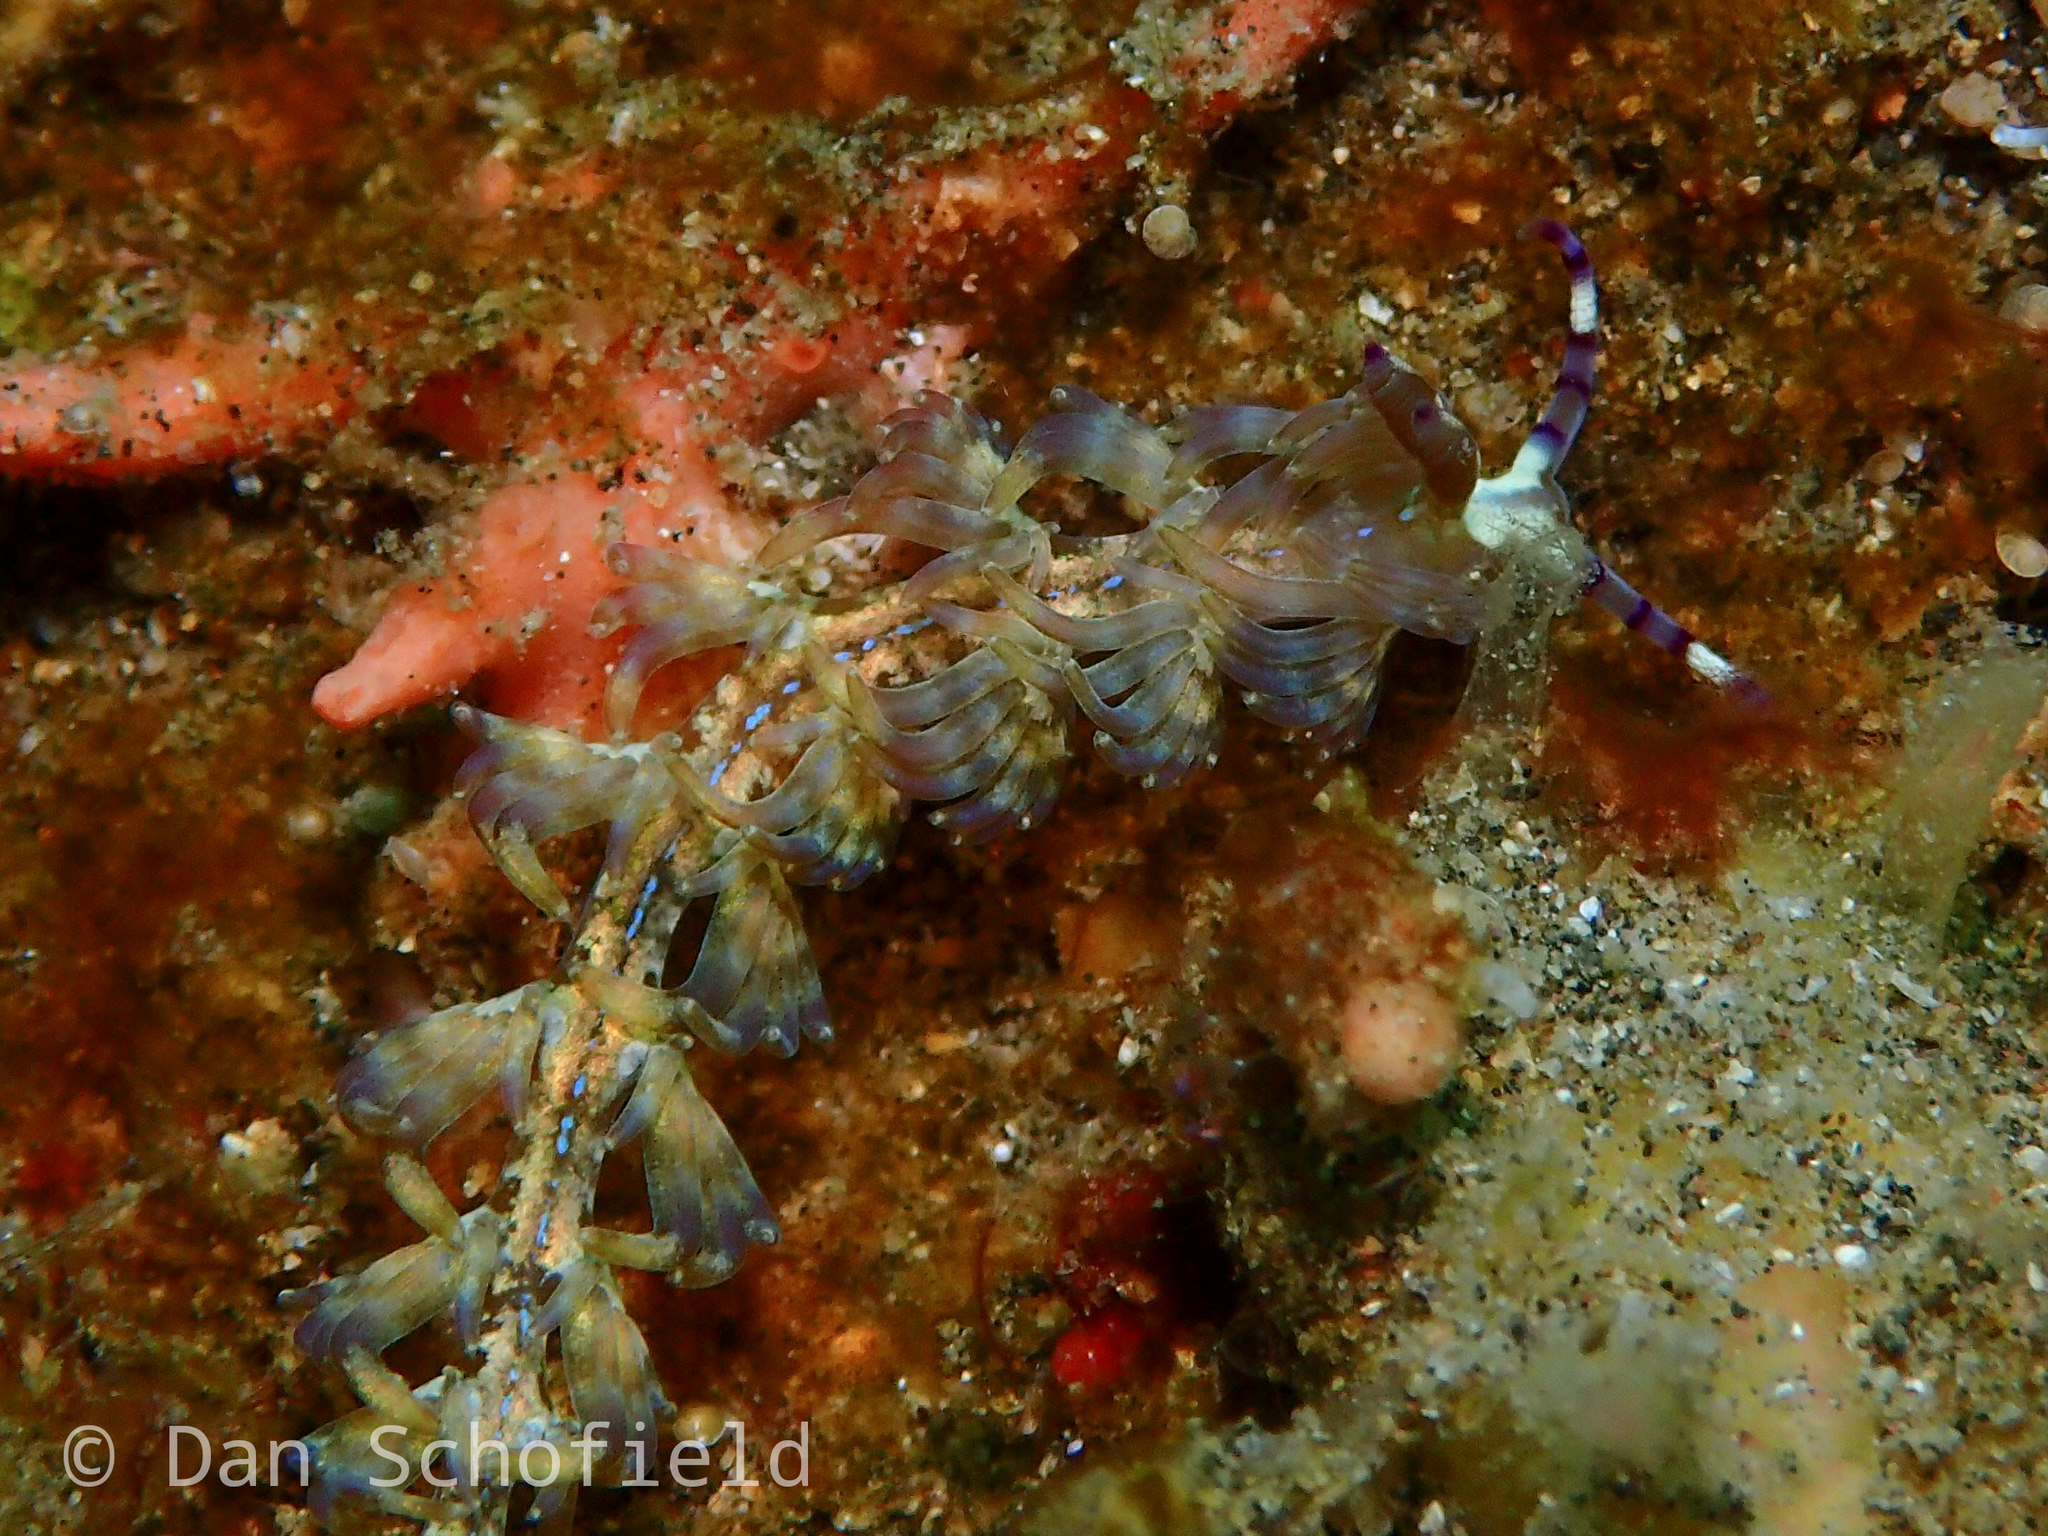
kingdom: Animalia
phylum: Mollusca
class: Gastropoda
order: Nudibranchia
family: Facelinidae
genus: Pteraeolidia
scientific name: Pteraeolidia semperi
